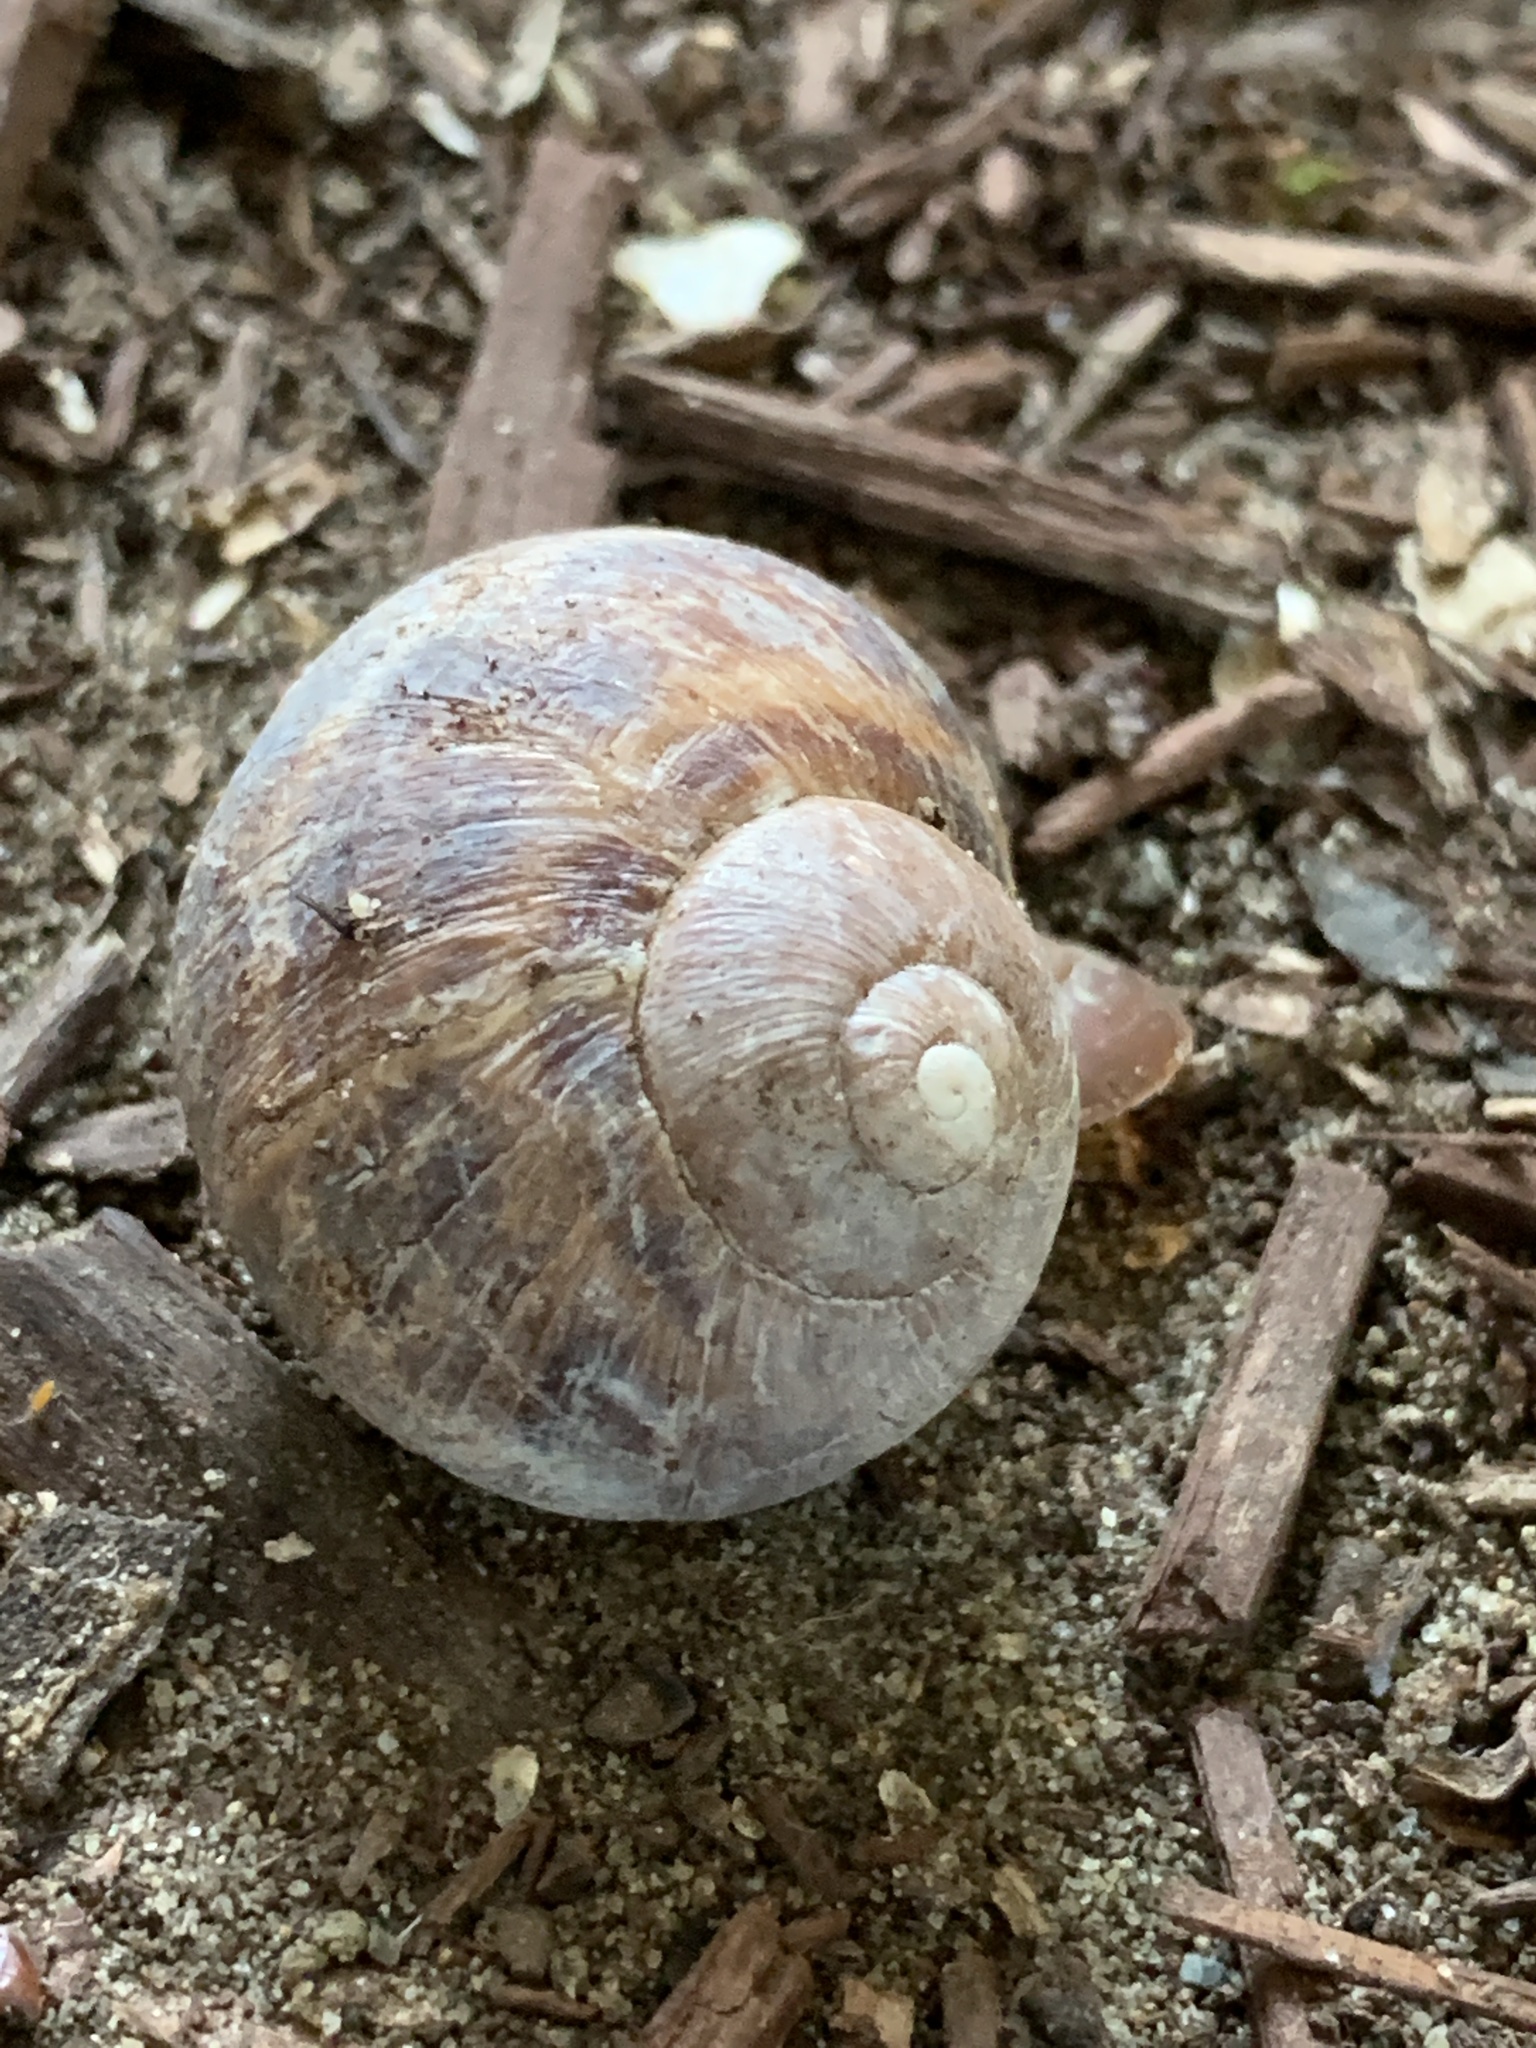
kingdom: Animalia
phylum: Mollusca
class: Gastropoda
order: Stylommatophora
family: Helicidae
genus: Cornu
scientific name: Cornu aspersum
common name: Brown garden snail
